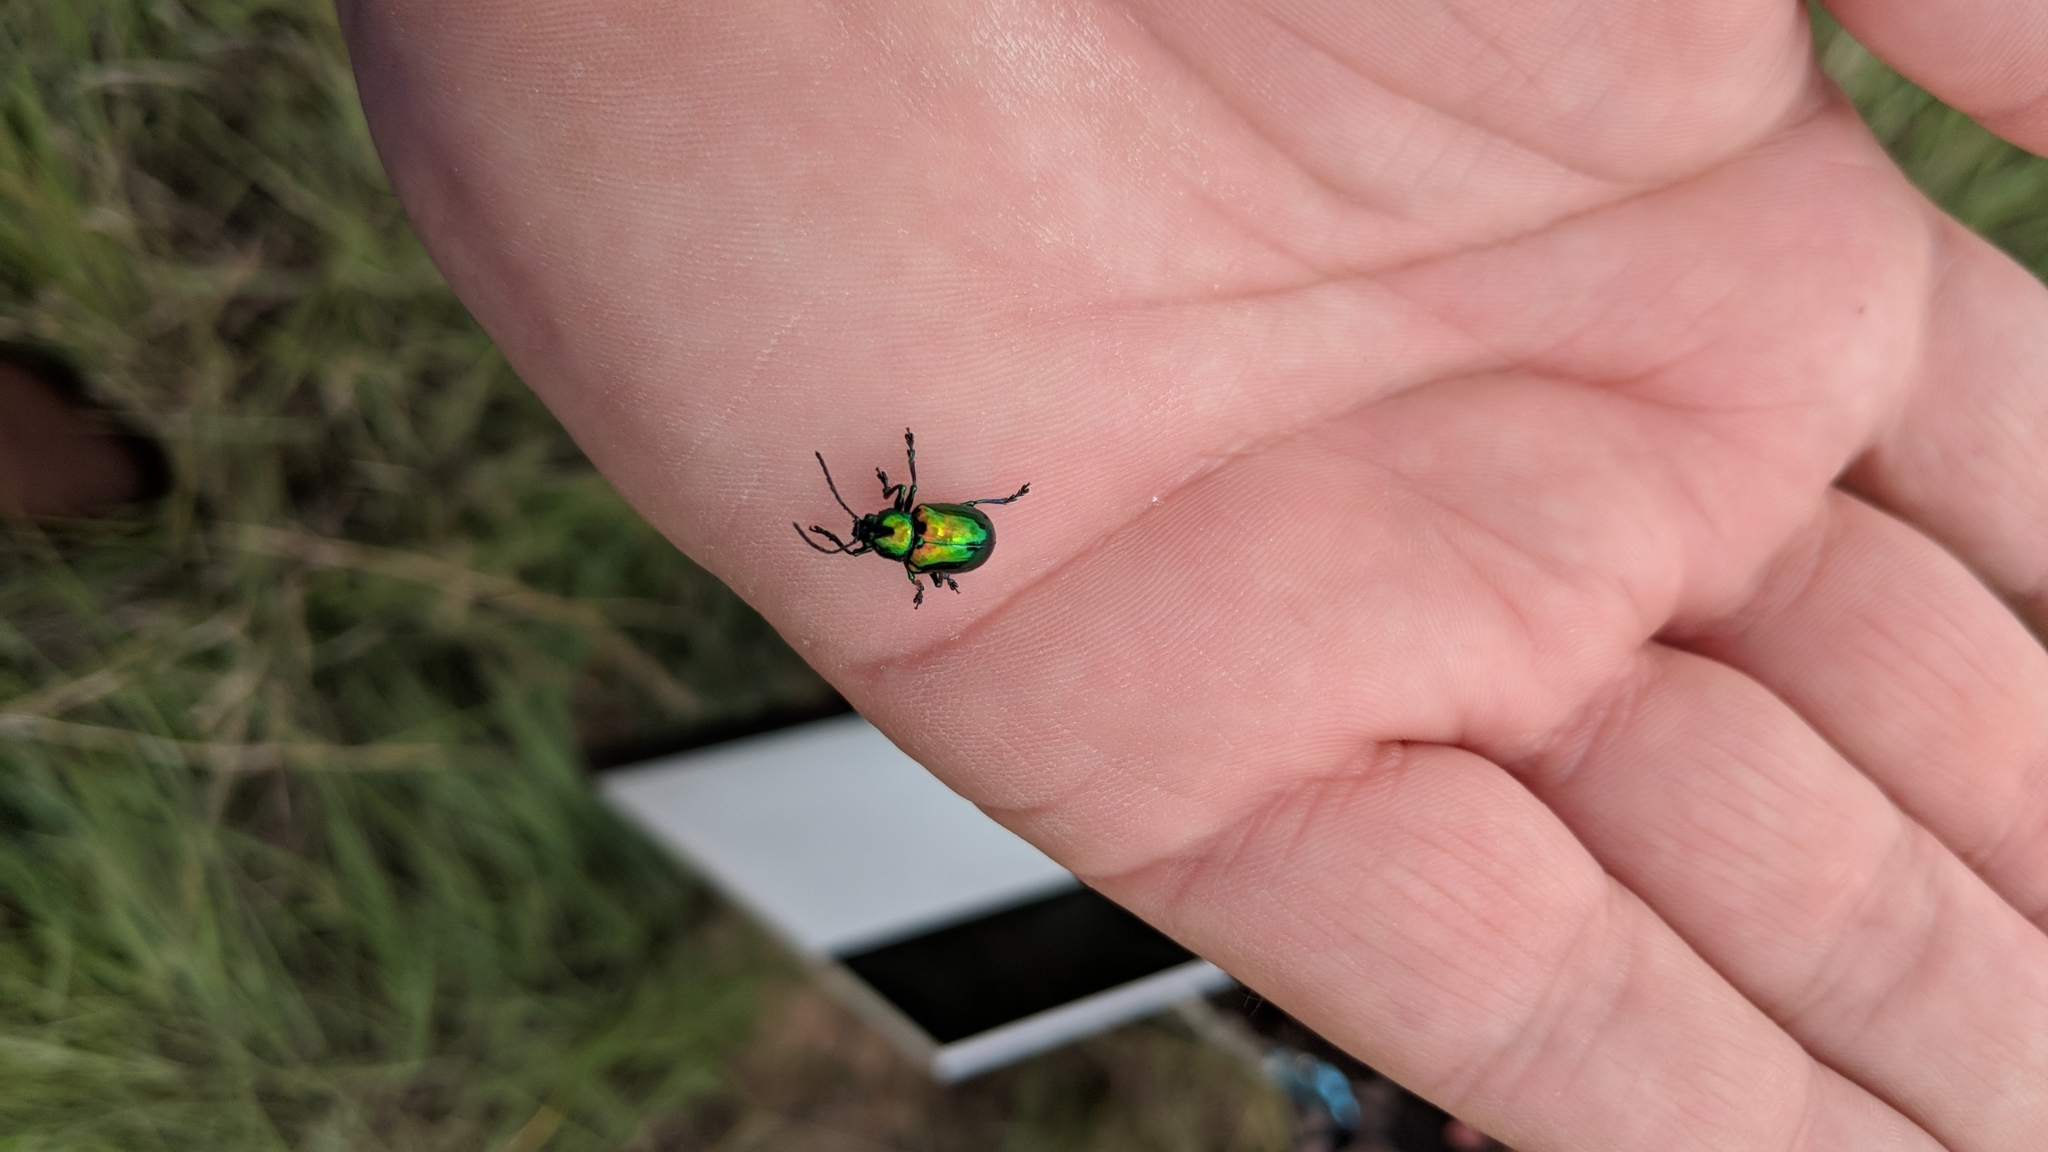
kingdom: Animalia
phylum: Arthropoda
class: Insecta
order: Coleoptera
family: Chrysomelidae
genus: Chrysochus
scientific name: Chrysochus auratus
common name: Dogbane leaf beetle
